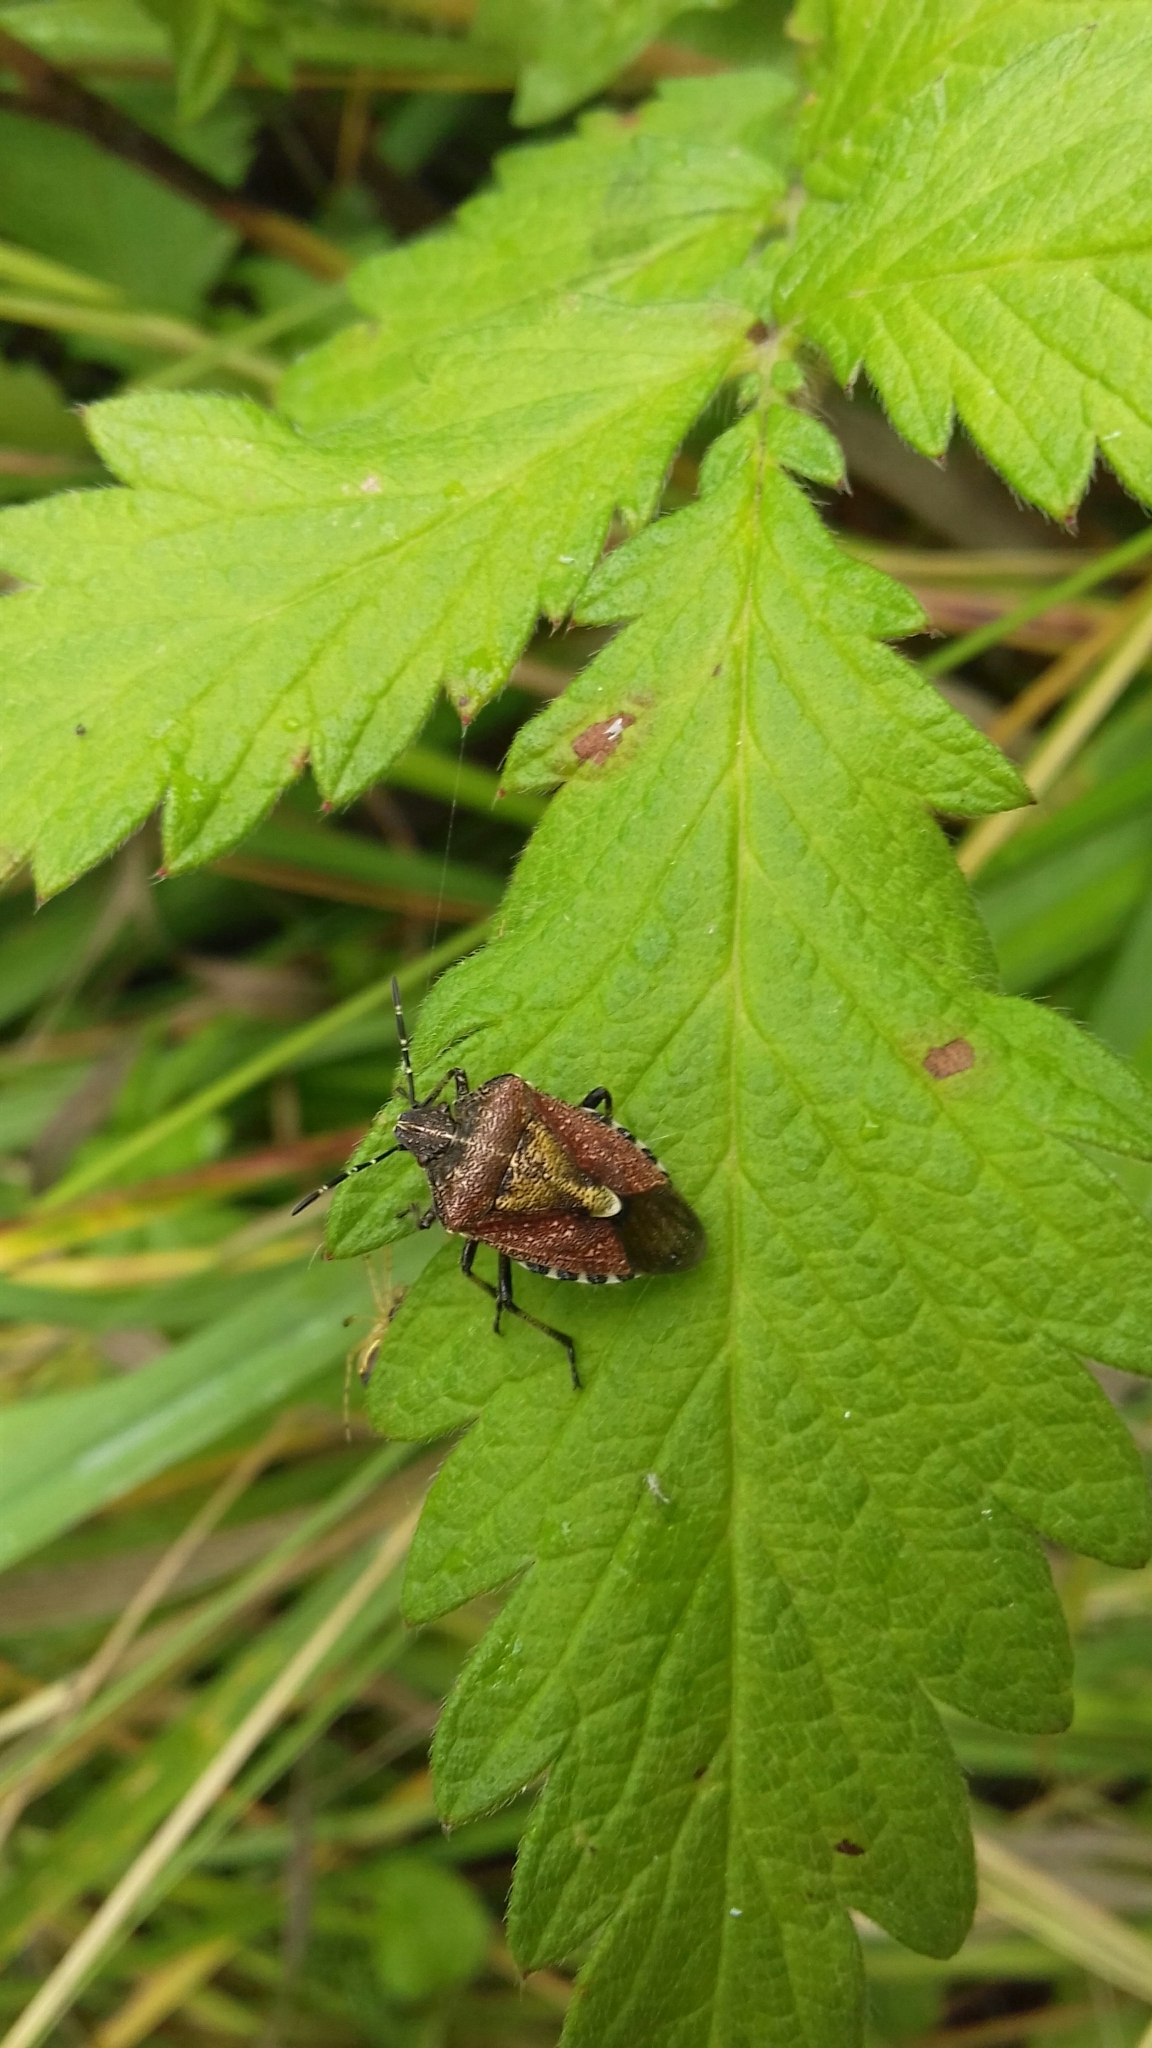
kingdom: Animalia
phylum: Arthropoda
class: Insecta
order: Hemiptera
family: Pentatomidae
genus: Dolycoris
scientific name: Dolycoris baccarum
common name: Sloe bug
